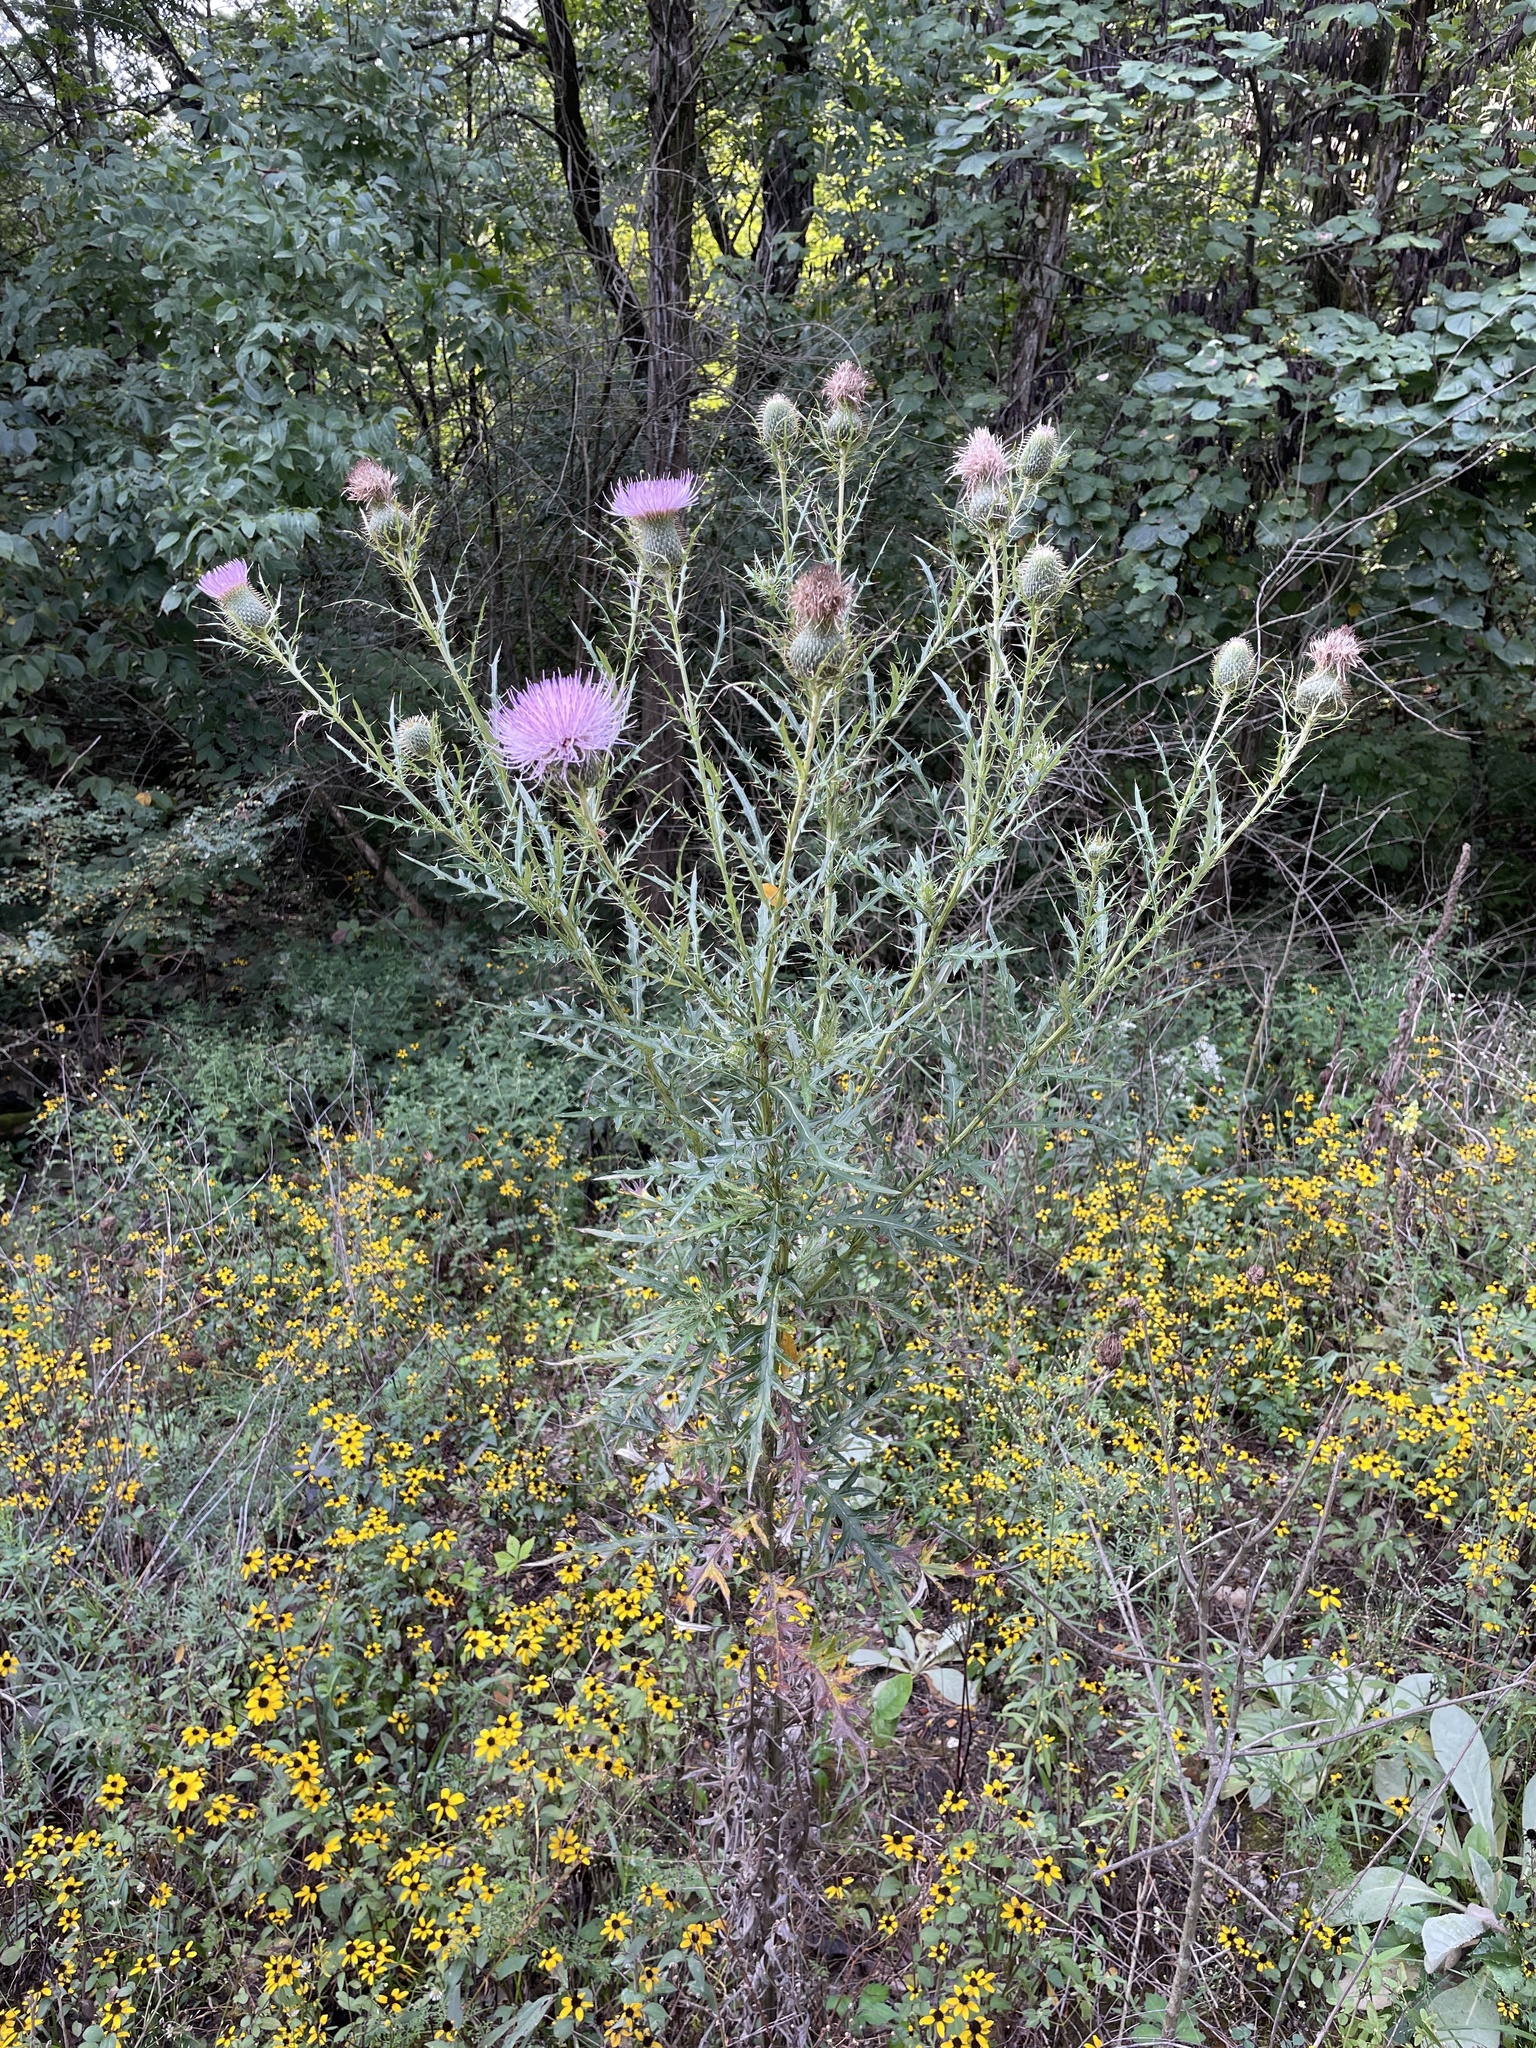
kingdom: Plantae
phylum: Tracheophyta
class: Magnoliopsida
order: Asterales
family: Asteraceae
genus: Cirsium
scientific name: Cirsium discolor
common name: Field thistle
